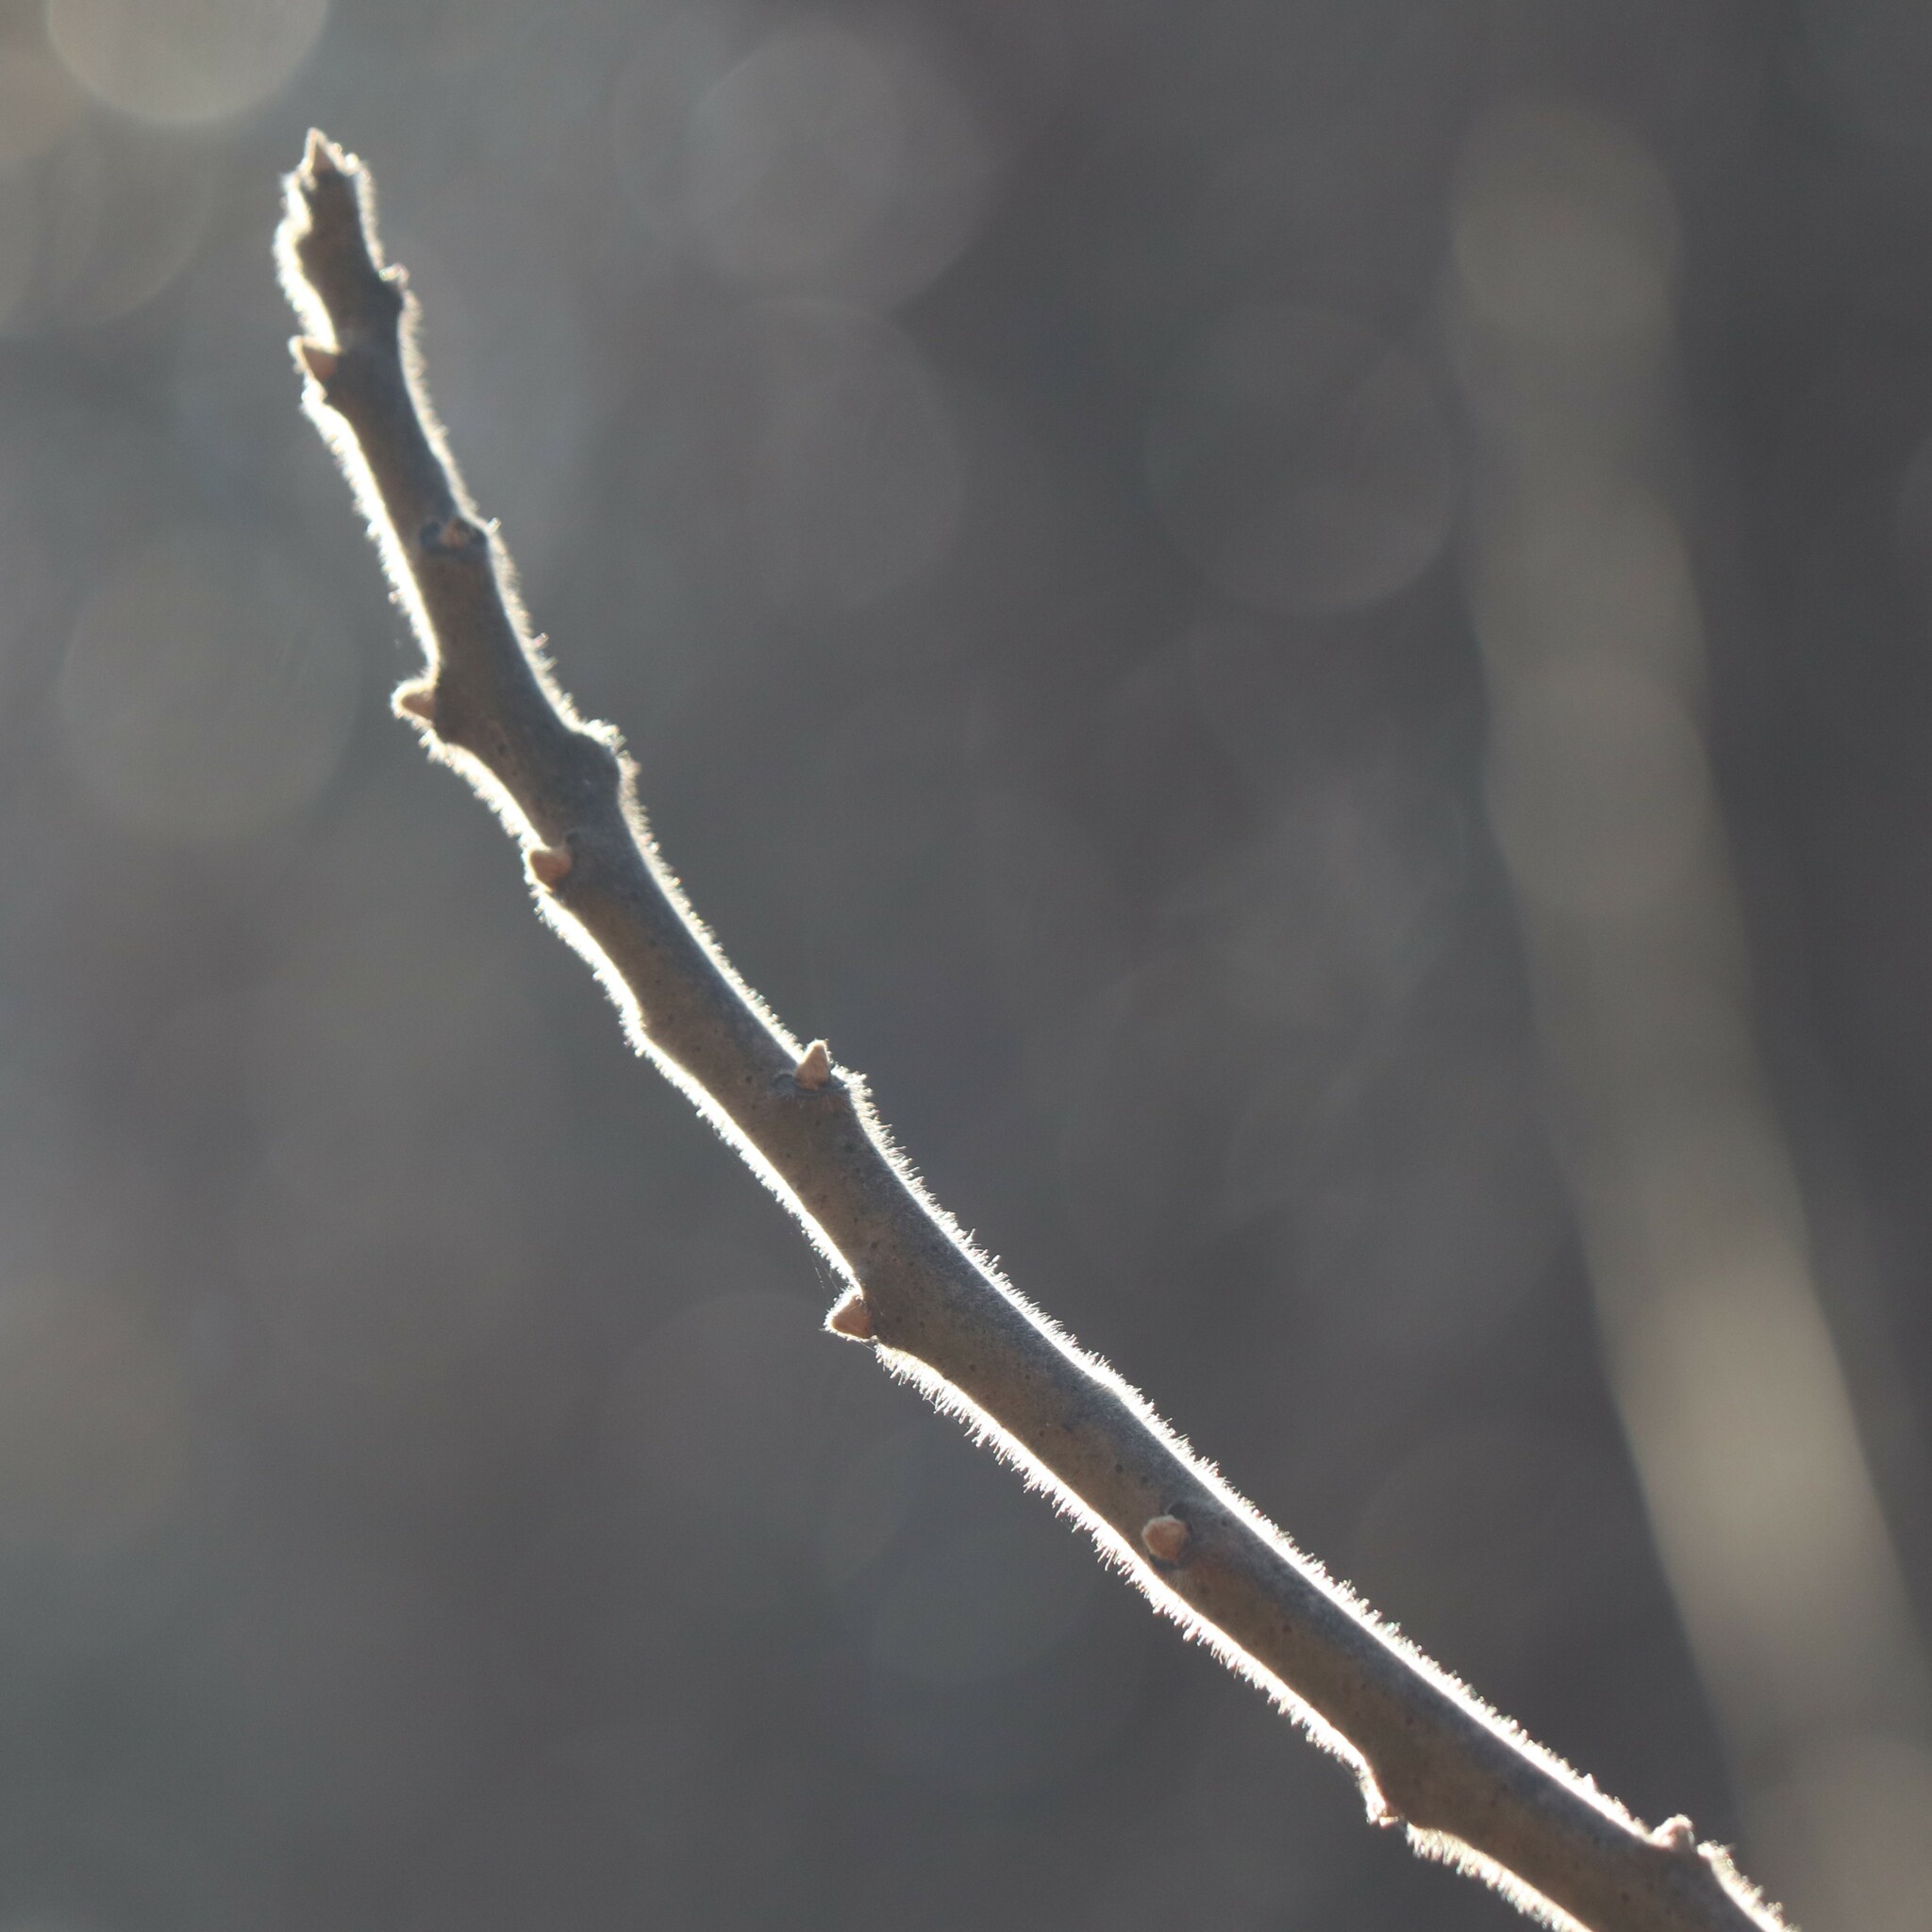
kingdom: Plantae
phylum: Tracheophyta
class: Magnoliopsida
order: Sapindales
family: Anacardiaceae
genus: Rhus
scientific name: Rhus typhina
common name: Staghorn sumac
